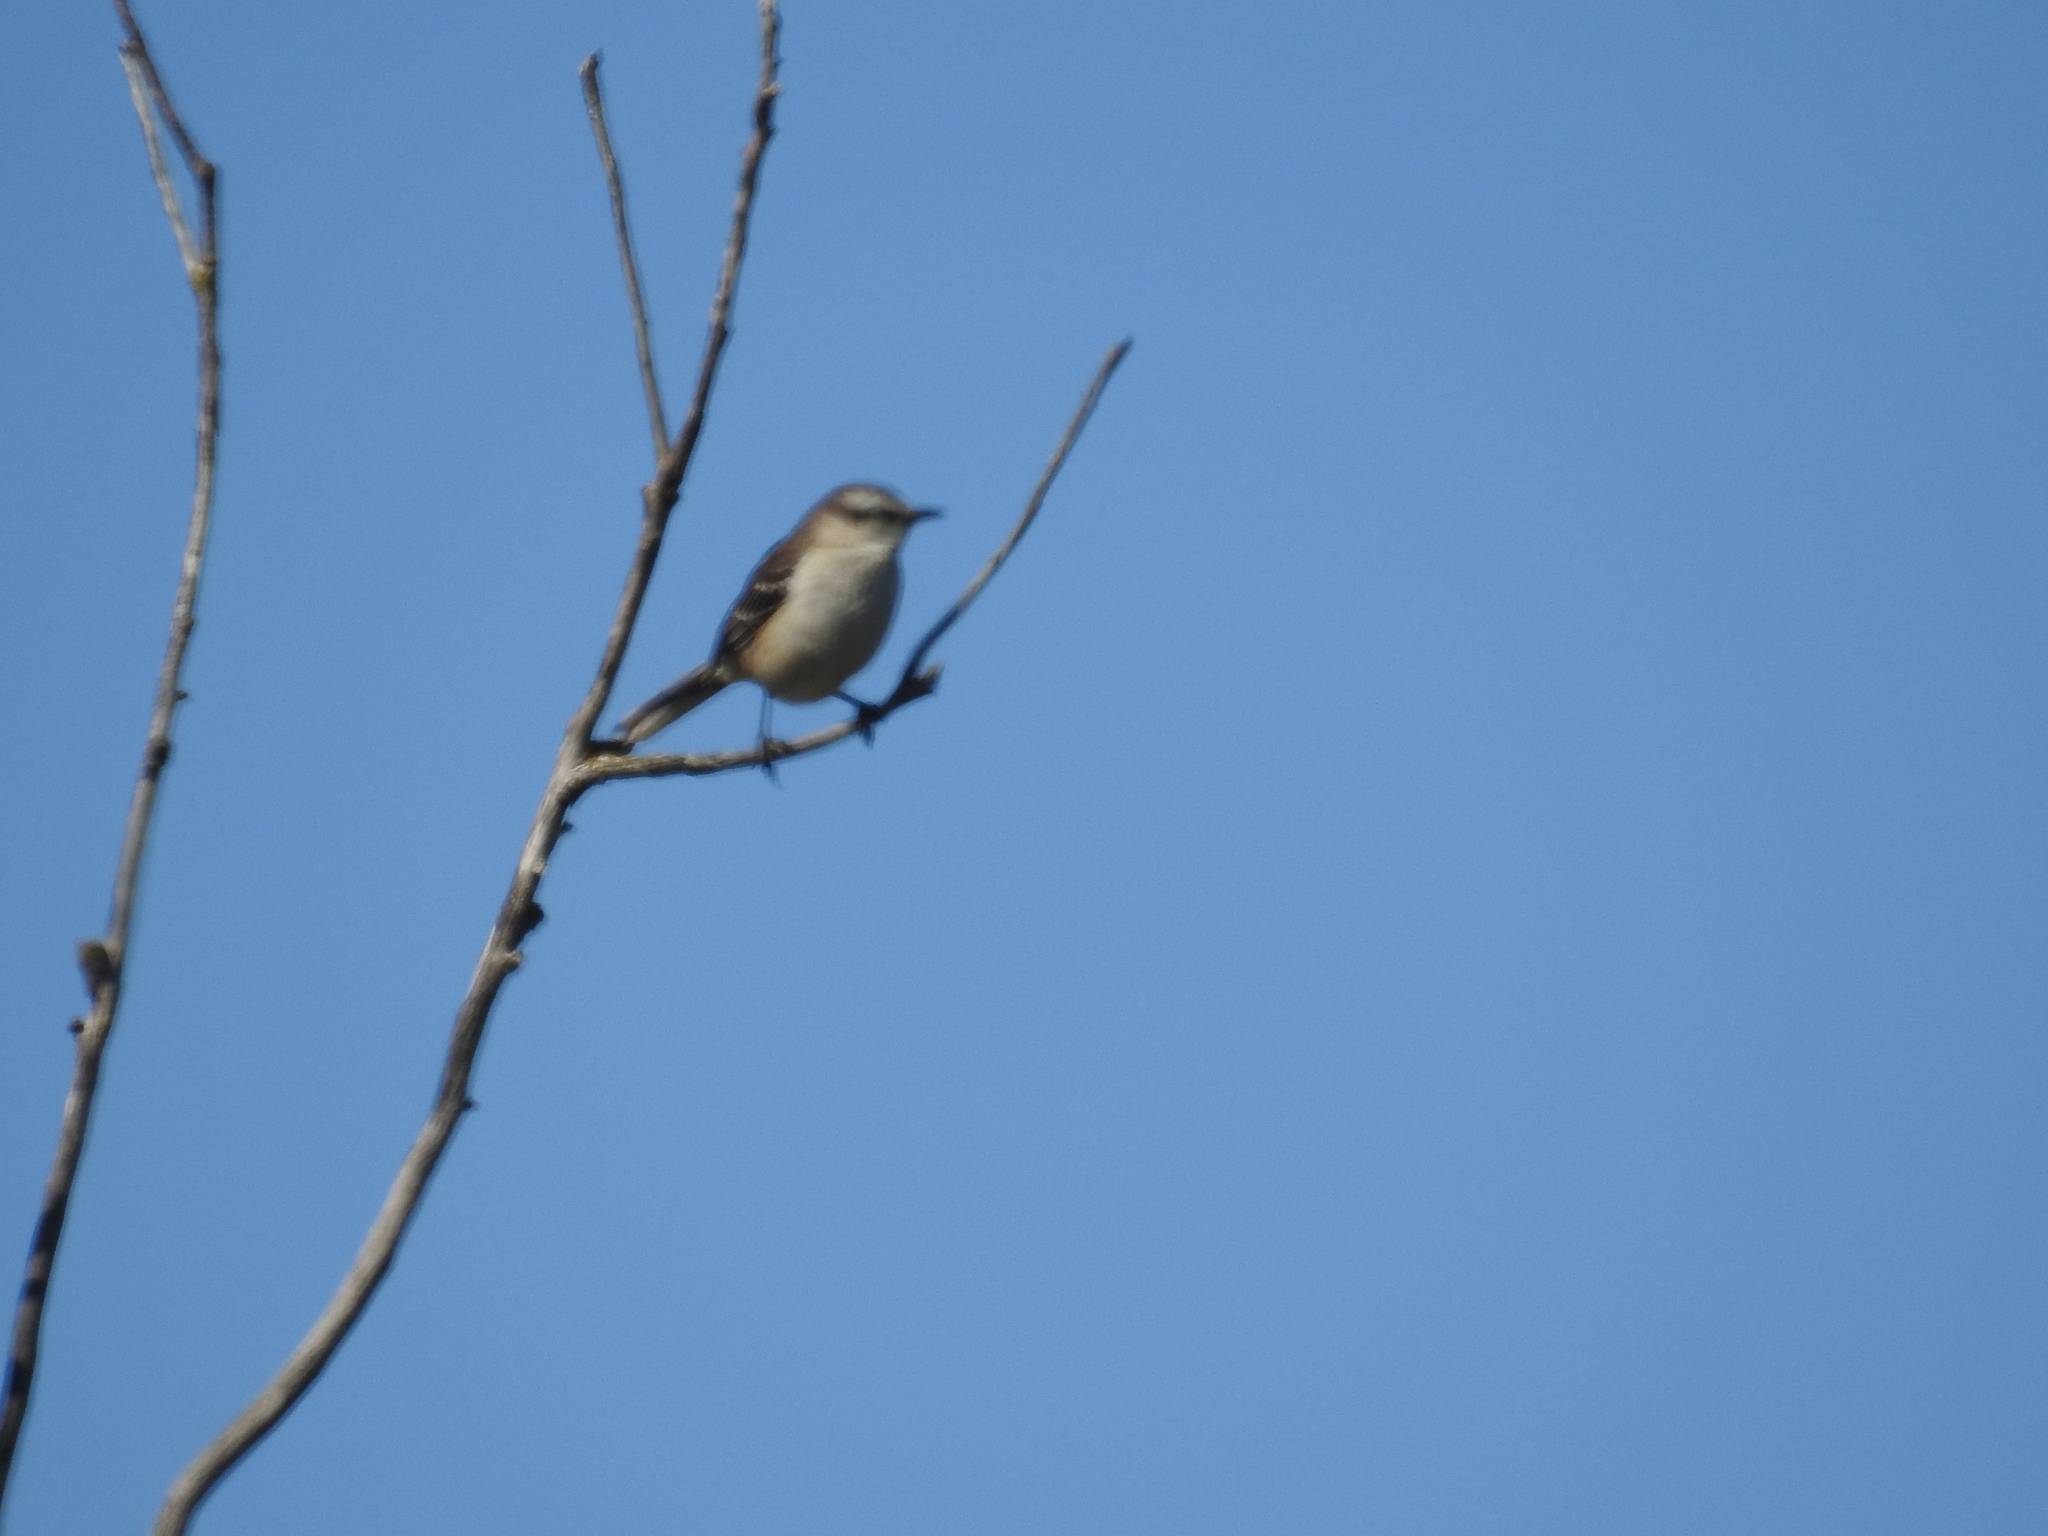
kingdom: Animalia
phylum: Chordata
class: Aves
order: Passeriformes
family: Tyrannidae
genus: Serpophaga
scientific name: Serpophaga subcristata
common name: White-crested tyrannulet
